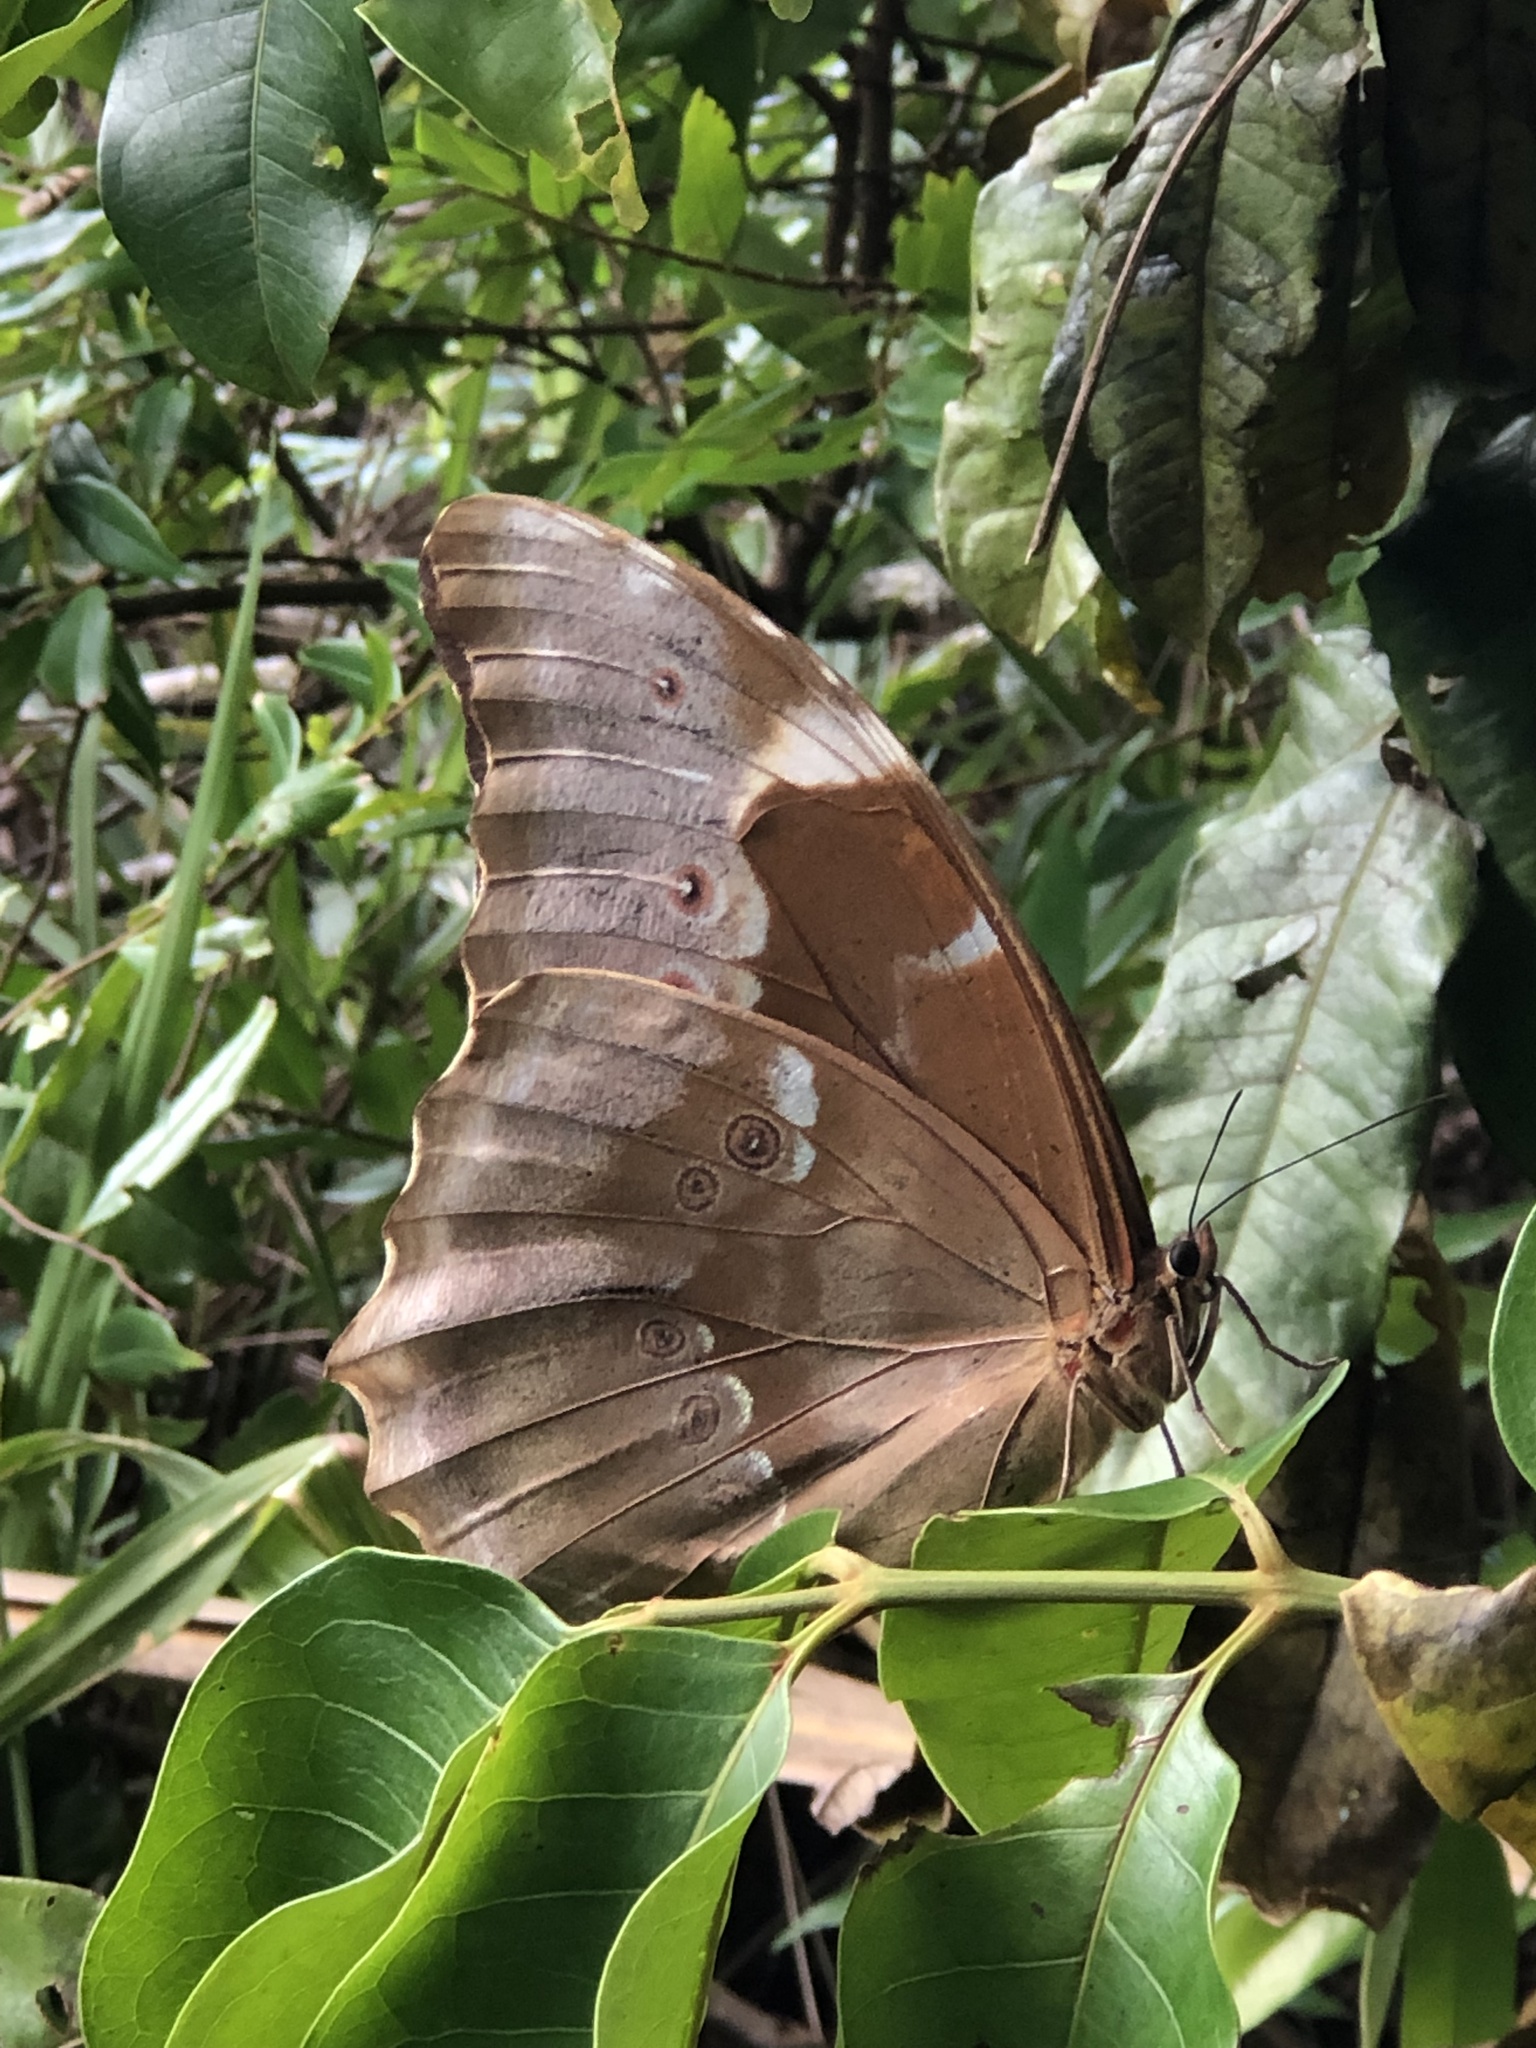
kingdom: Animalia
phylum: Arthropoda
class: Insecta
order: Lepidoptera
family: Nymphalidae
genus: Morpho
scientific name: Morpho menelaus
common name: Menelaus morpho
